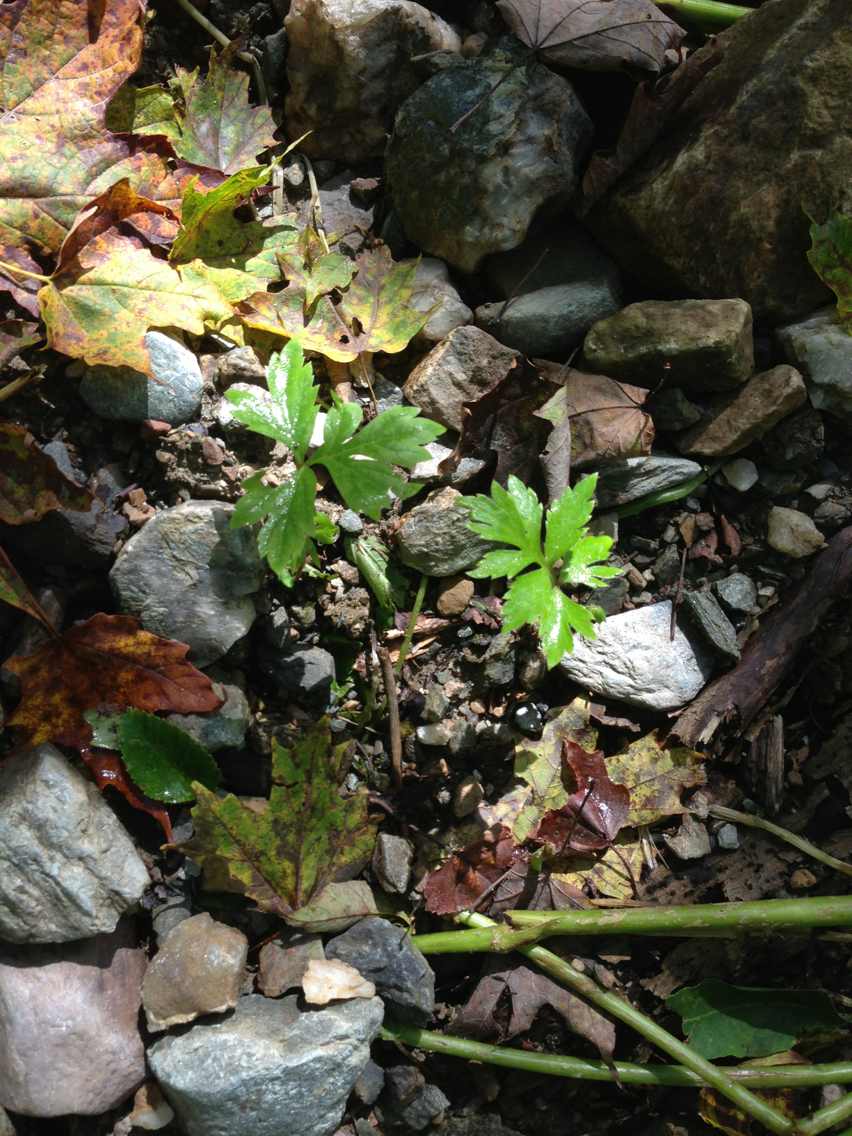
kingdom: Plantae
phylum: Tracheophyta
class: Magnoliopsida
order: Boraginales
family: Hydrophyllaceae
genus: Hydrophyllum
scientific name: Hydrophyllum virginianum
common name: Virginia waterleaf
